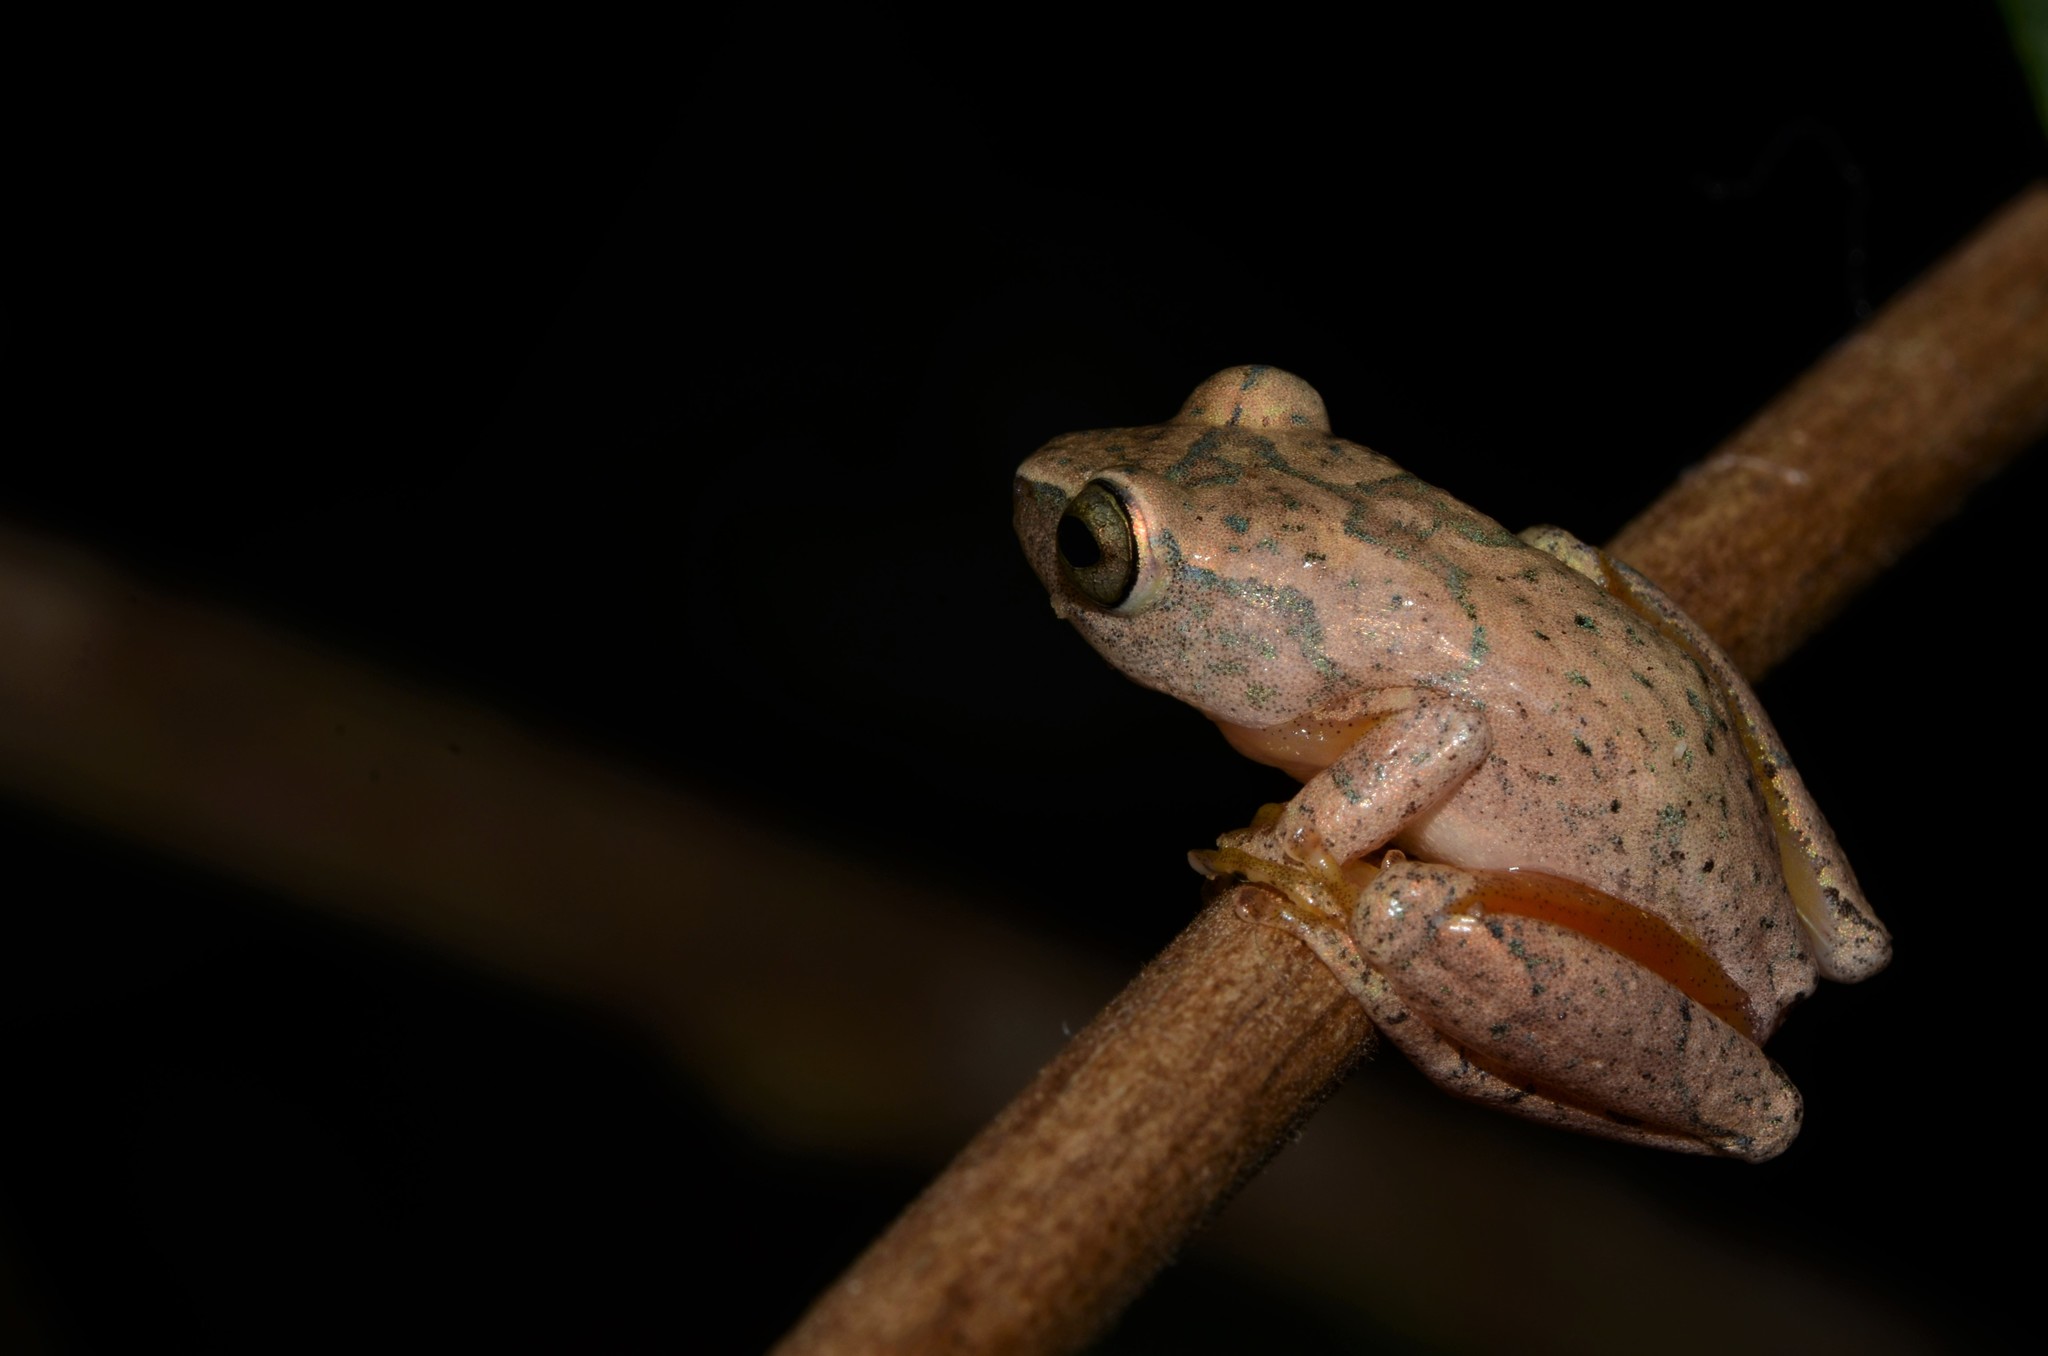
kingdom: Animalia
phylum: Chordata
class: Amphibia
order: Anura
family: Hyperoliidae
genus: Hyperolius
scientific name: Hyperolius tuberilinguis
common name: Tinker reed frog
